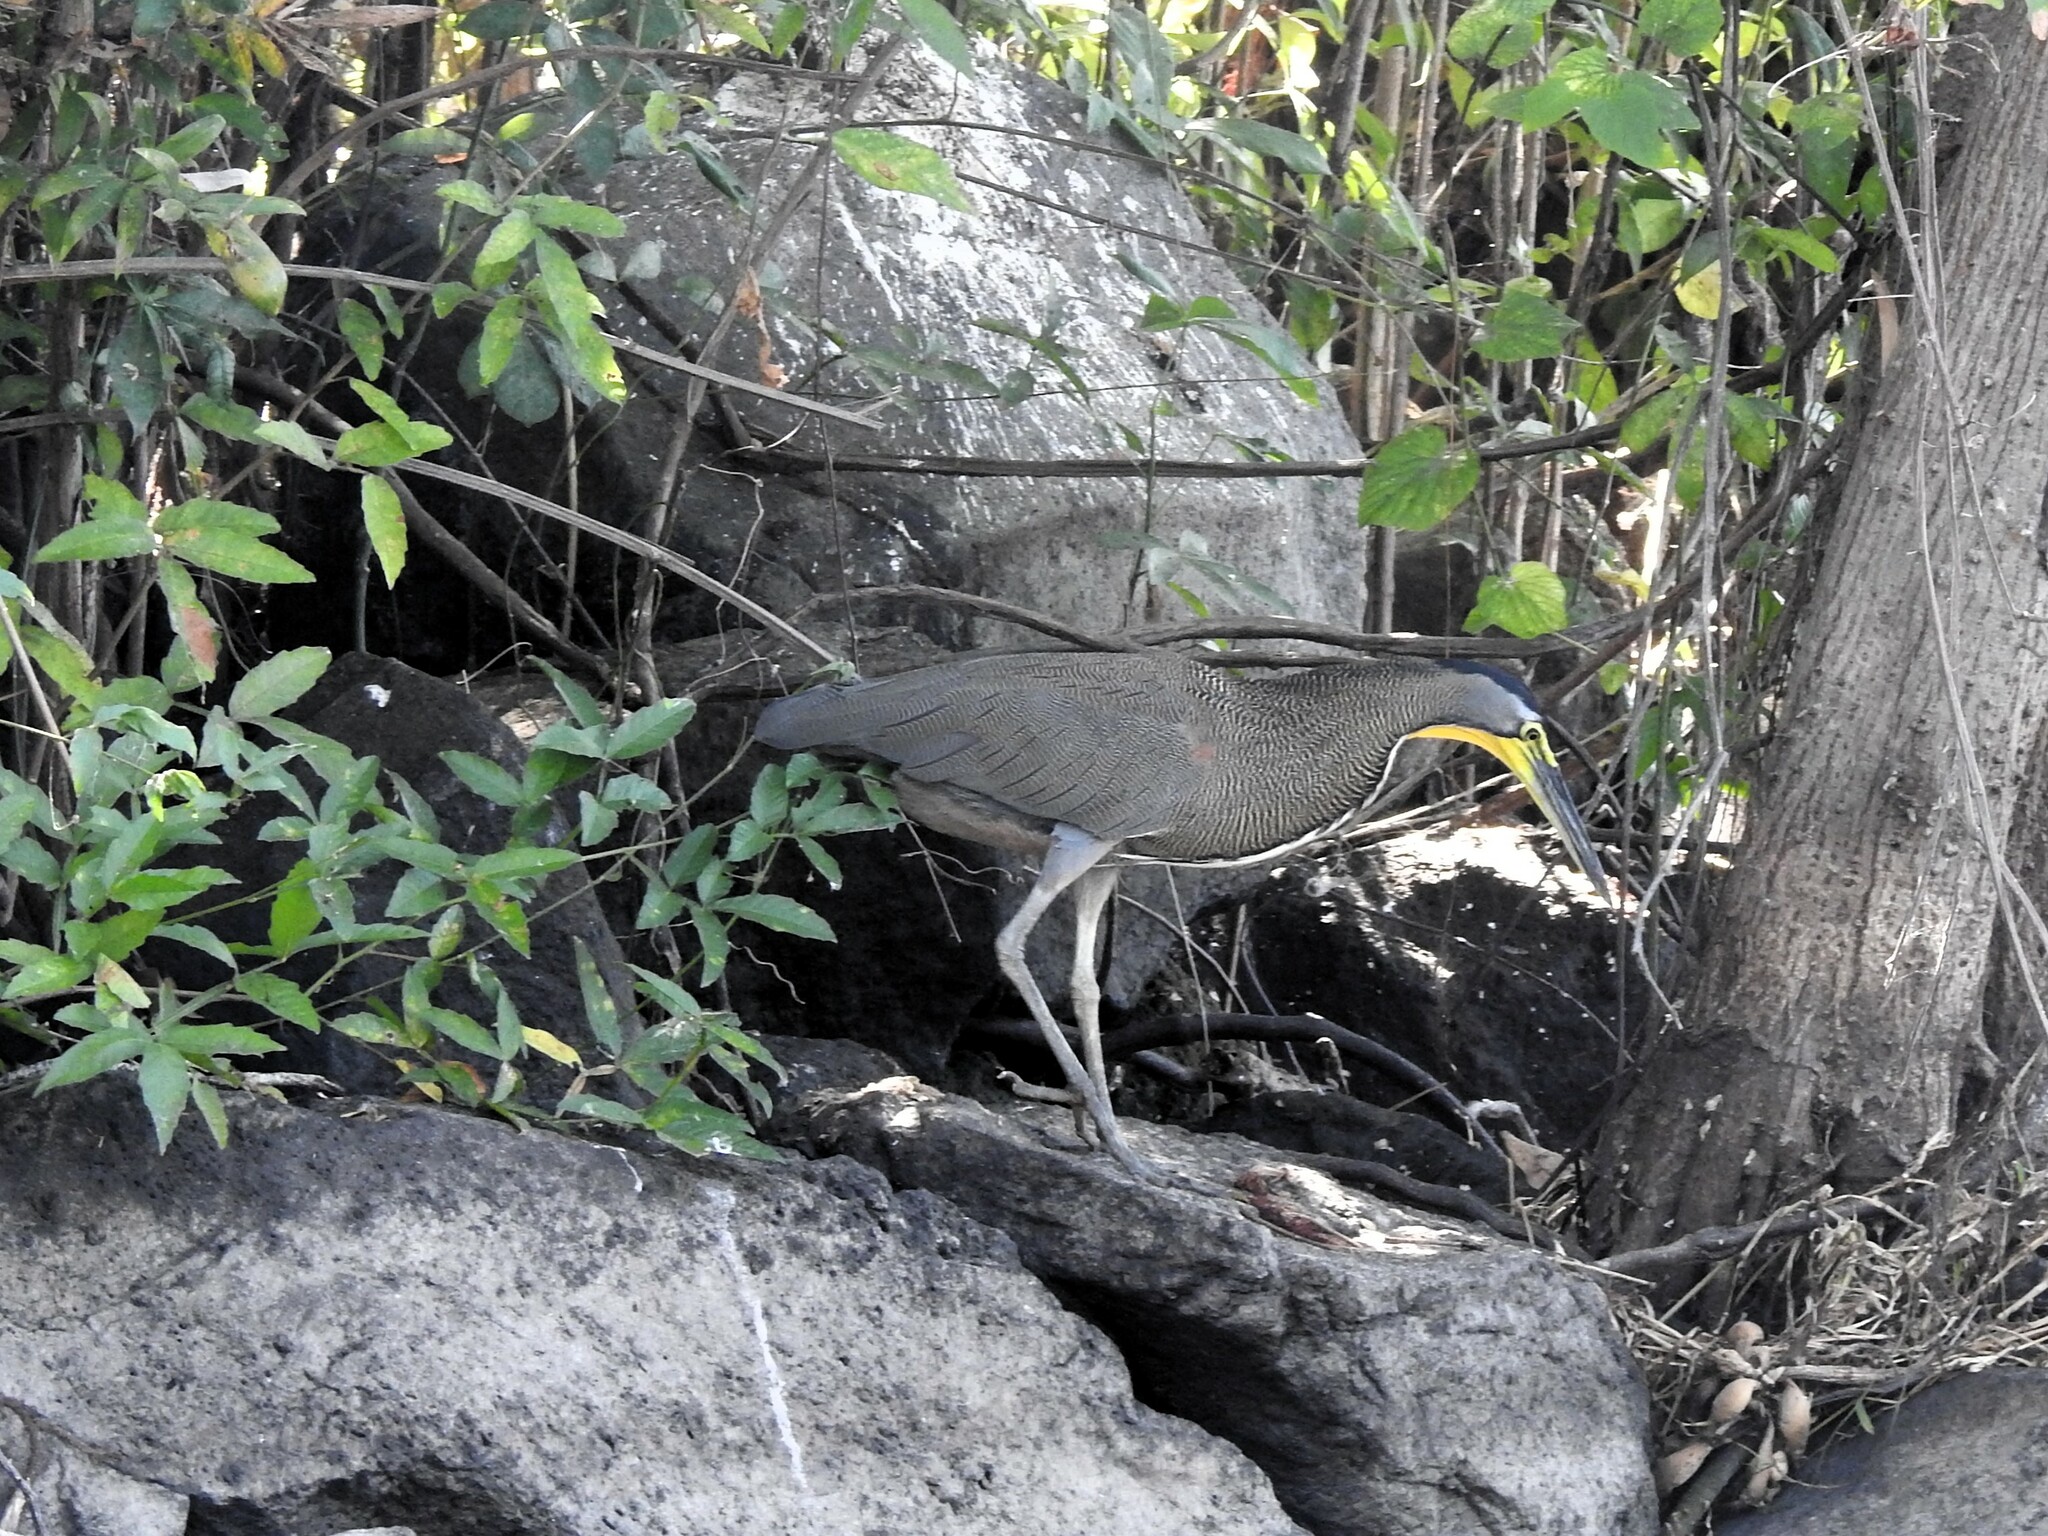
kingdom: Animalia
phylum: Chordata
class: Aves
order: Pelecaniformes
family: Ardeidae
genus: Tigrisoma
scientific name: Tigrisoma mexicanum
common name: Bare-throated tiger-heron
